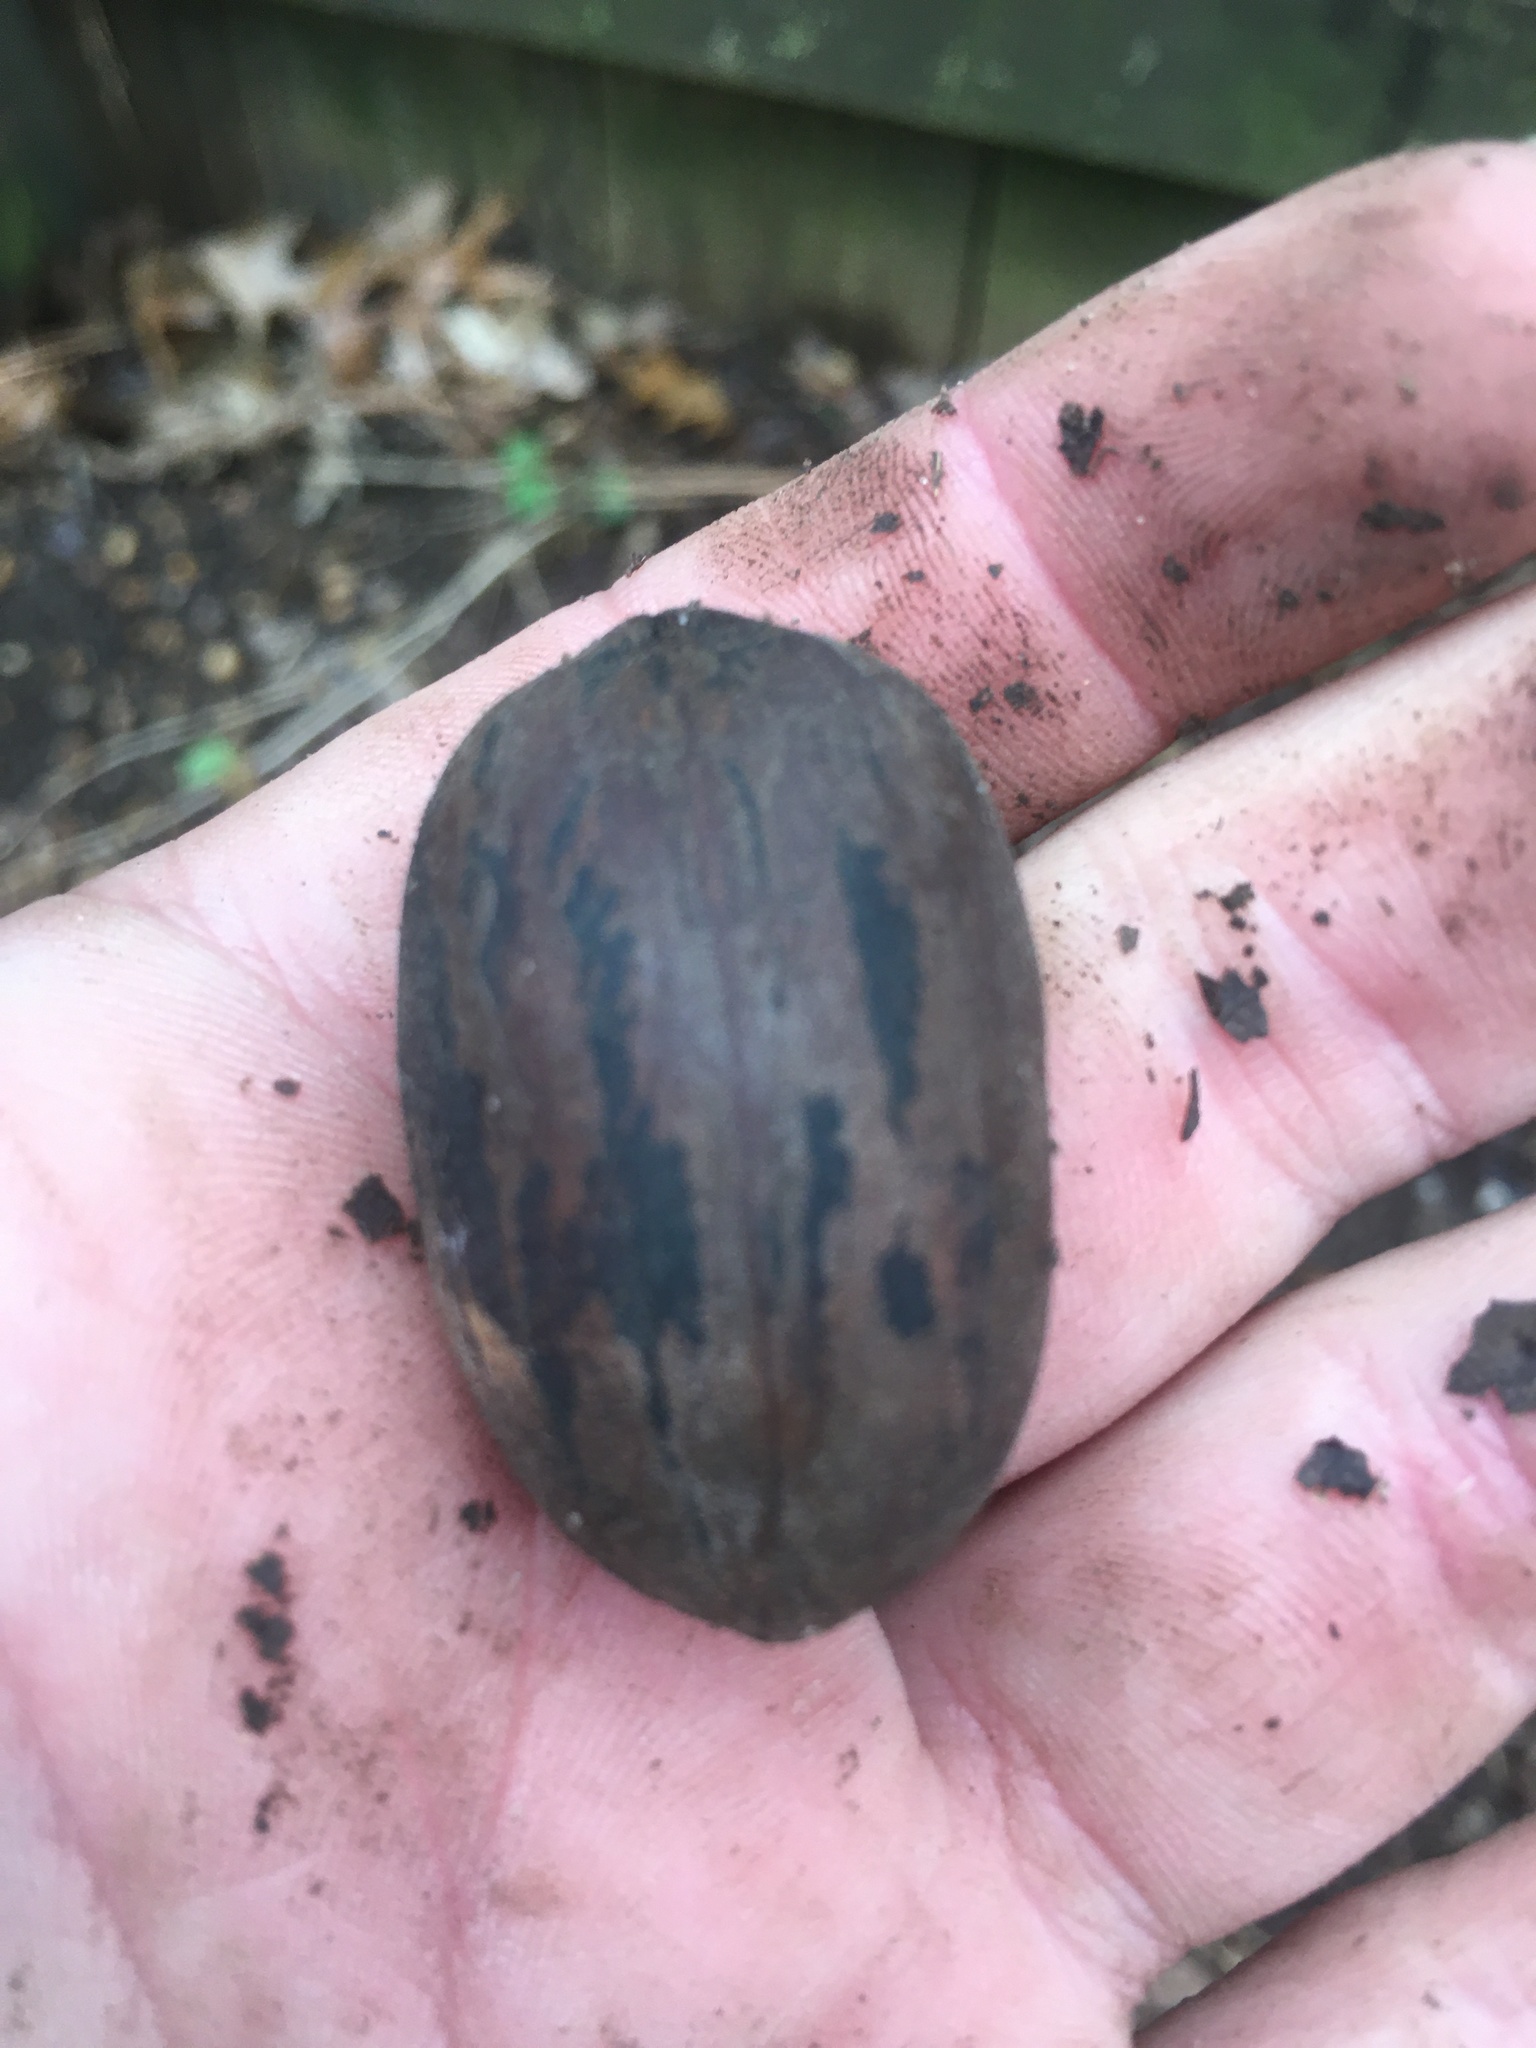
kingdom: Plantae
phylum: Tracheophyta
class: Magnoliopsida
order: Fagales
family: Juglandaceae
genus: Carya
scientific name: Carya illinoinensis
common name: Pecan
